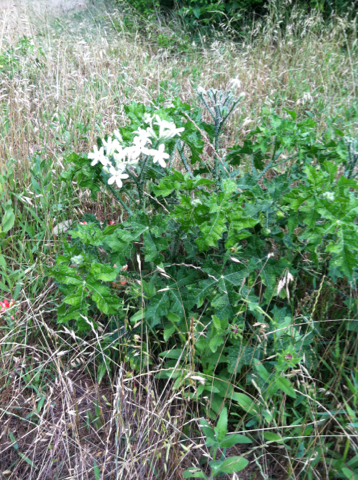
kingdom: Plantae
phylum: Tracheophyta
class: Magnoliopsida
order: Malpighiales
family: Euphorbiaceae
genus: Cnidoscolus
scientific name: Cnidoscolus texanus
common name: Texas bull-nettle
